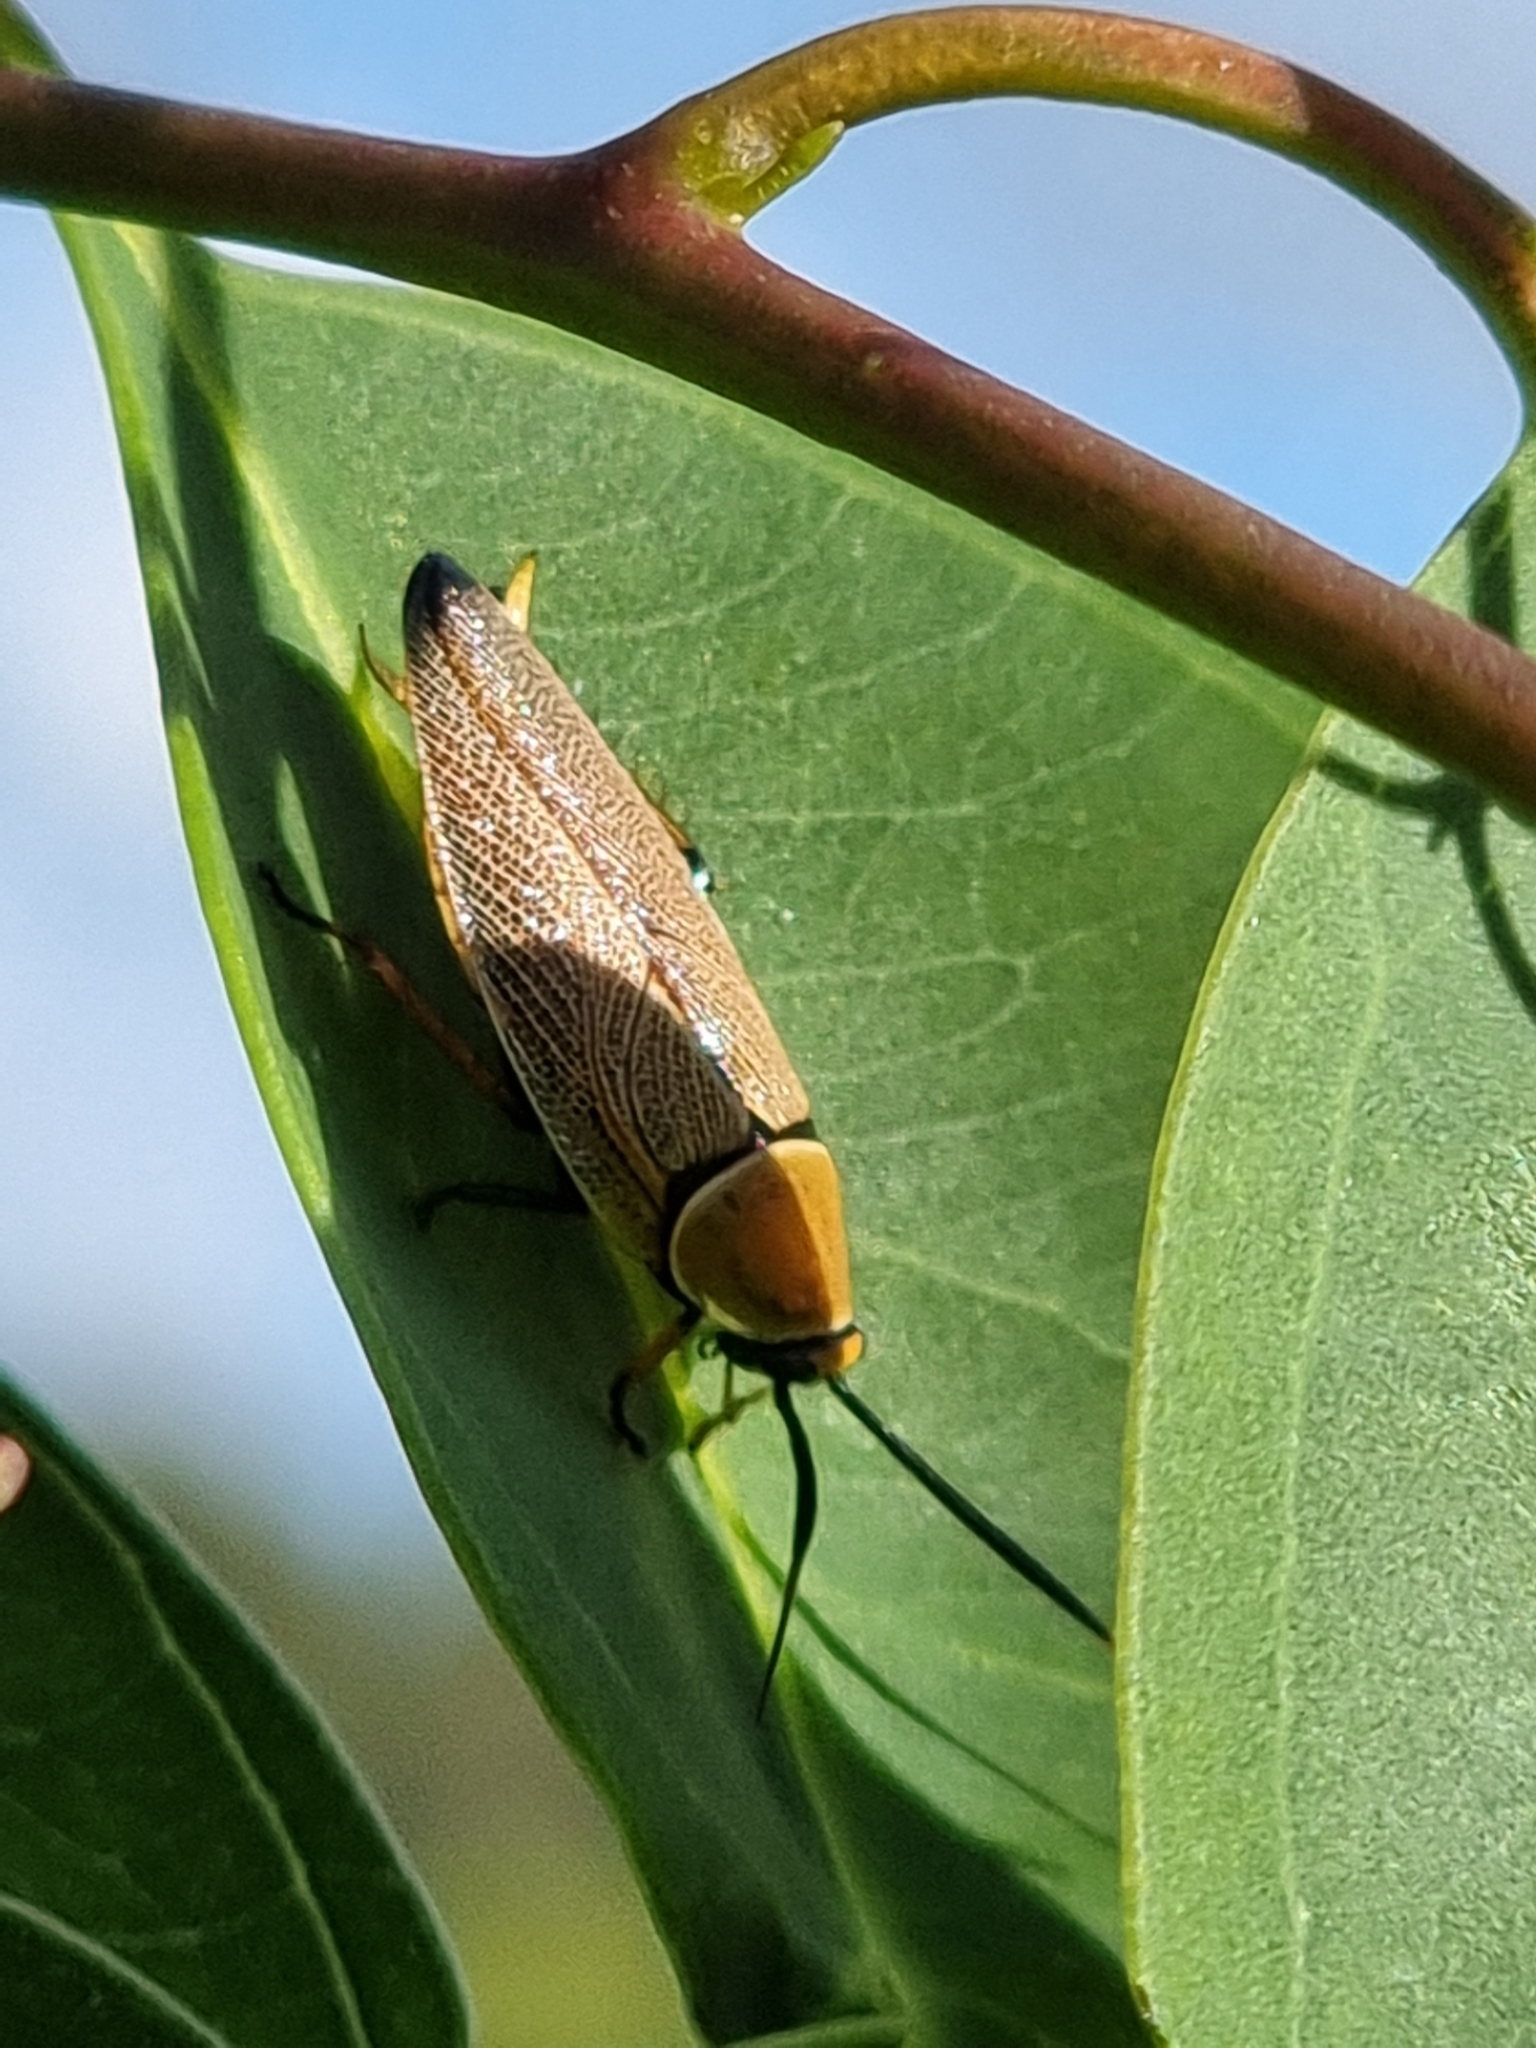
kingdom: Animalia
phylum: Arthropoda
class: Insecta
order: Blattodea
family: Ectobiidae
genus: Ellipsidion
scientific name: Ellipsidion humerale
